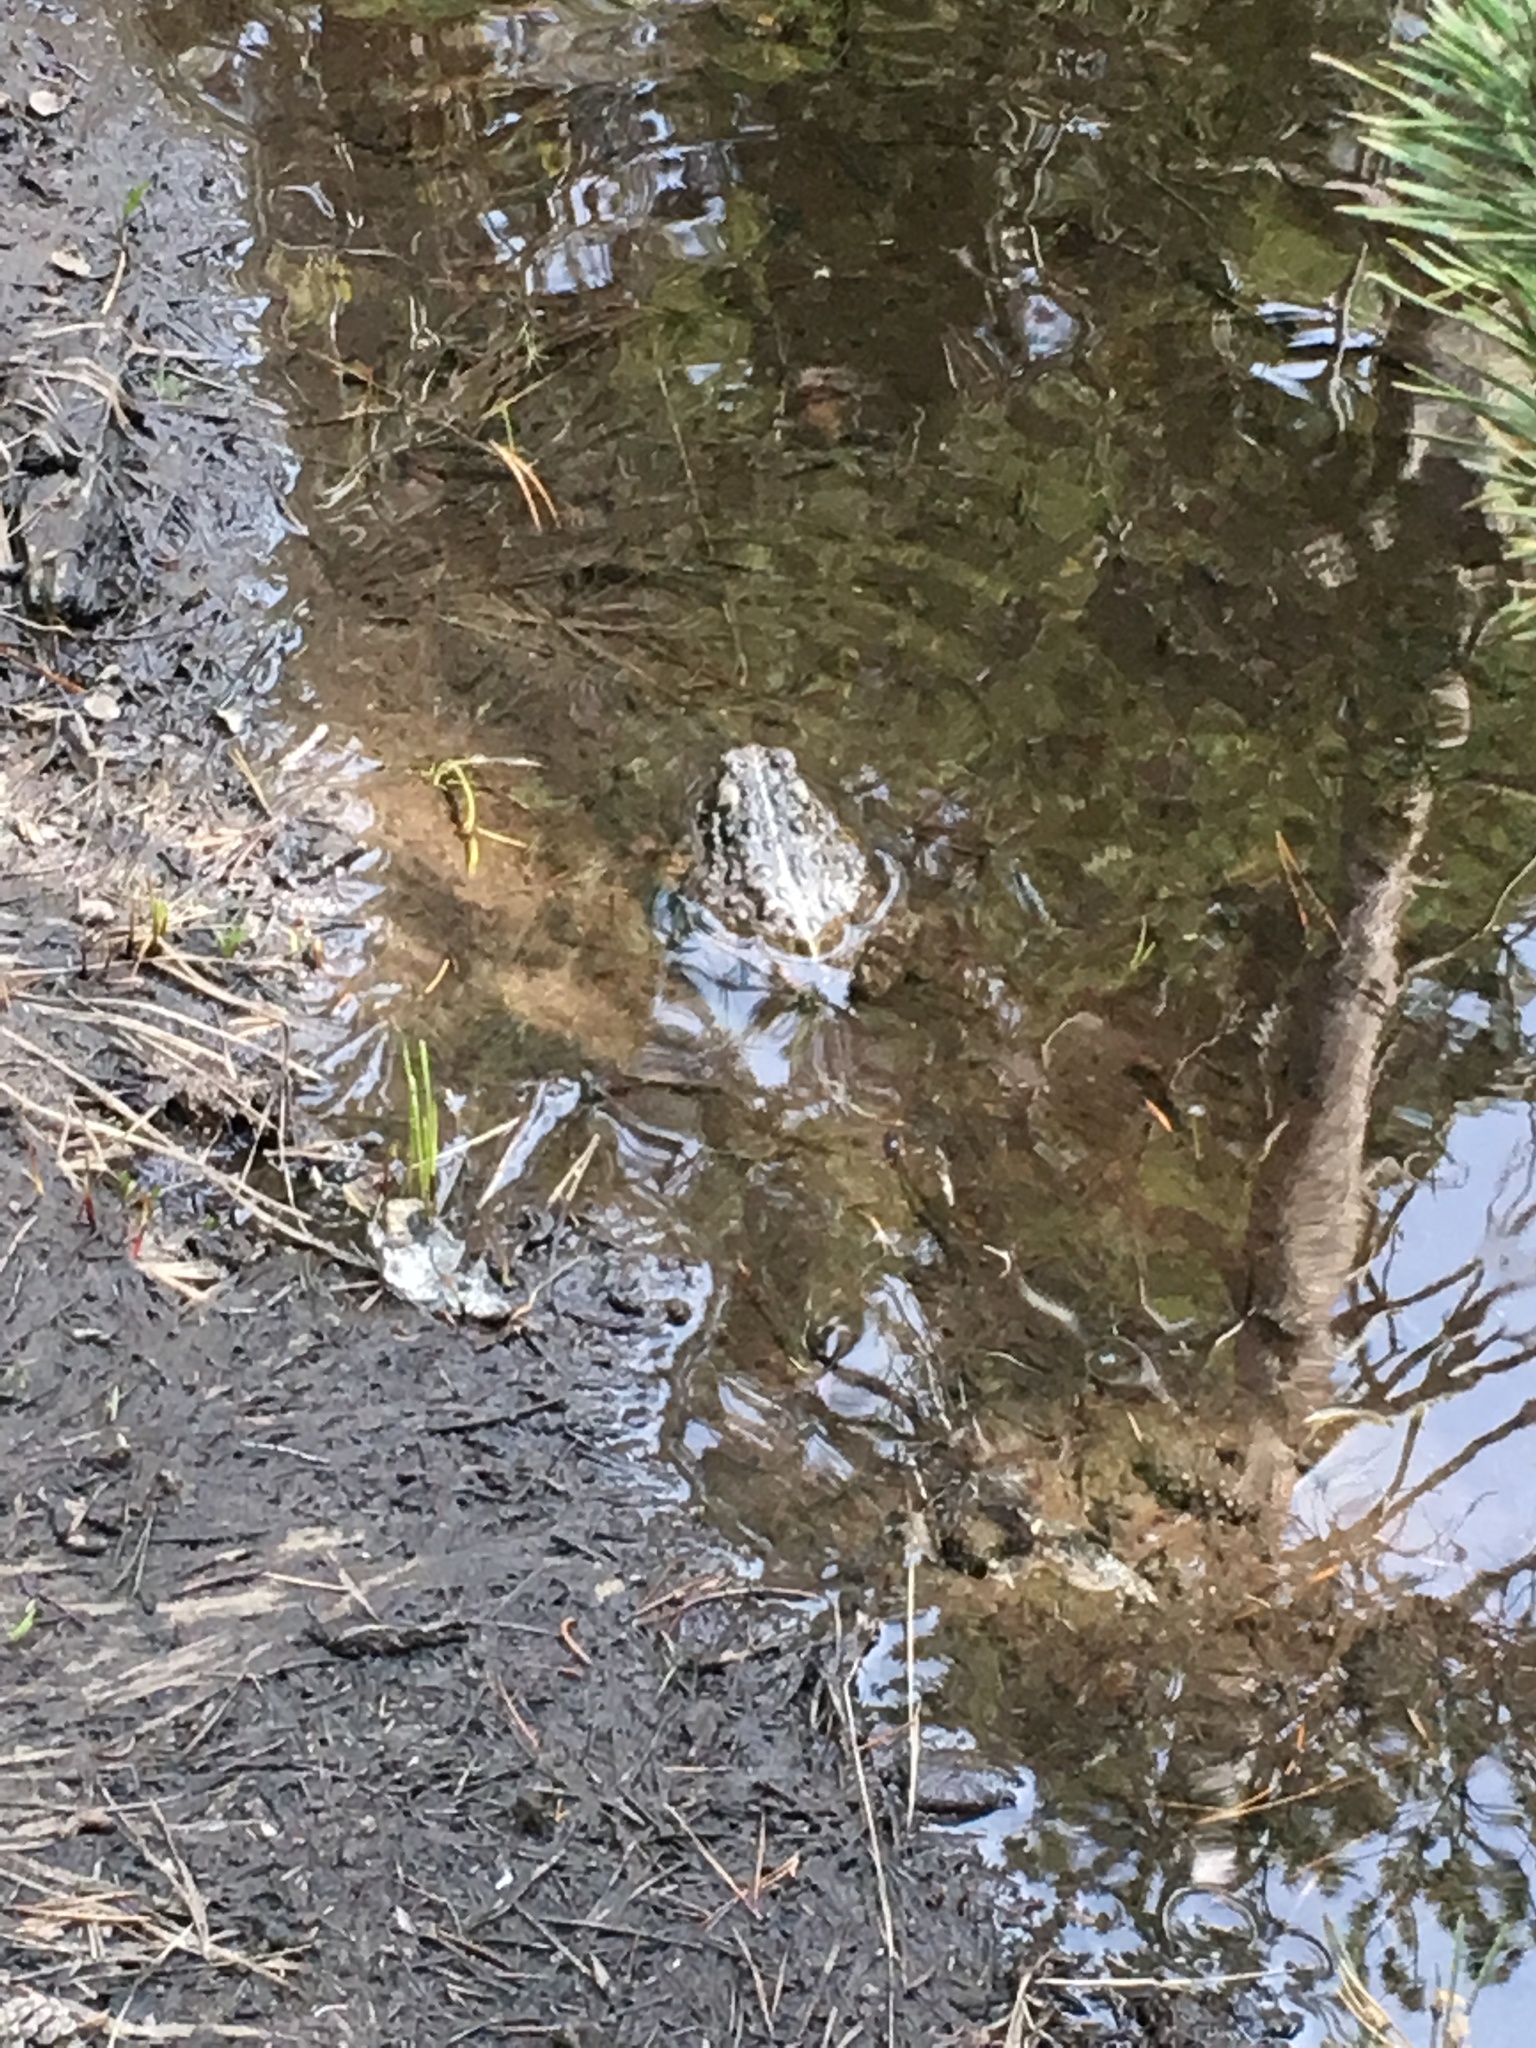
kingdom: Animalia
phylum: Chordata
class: Amphibia
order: Anura
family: Bufonidae
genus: Anaxyrus
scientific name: Anaxyrus boreas
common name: Western toad
